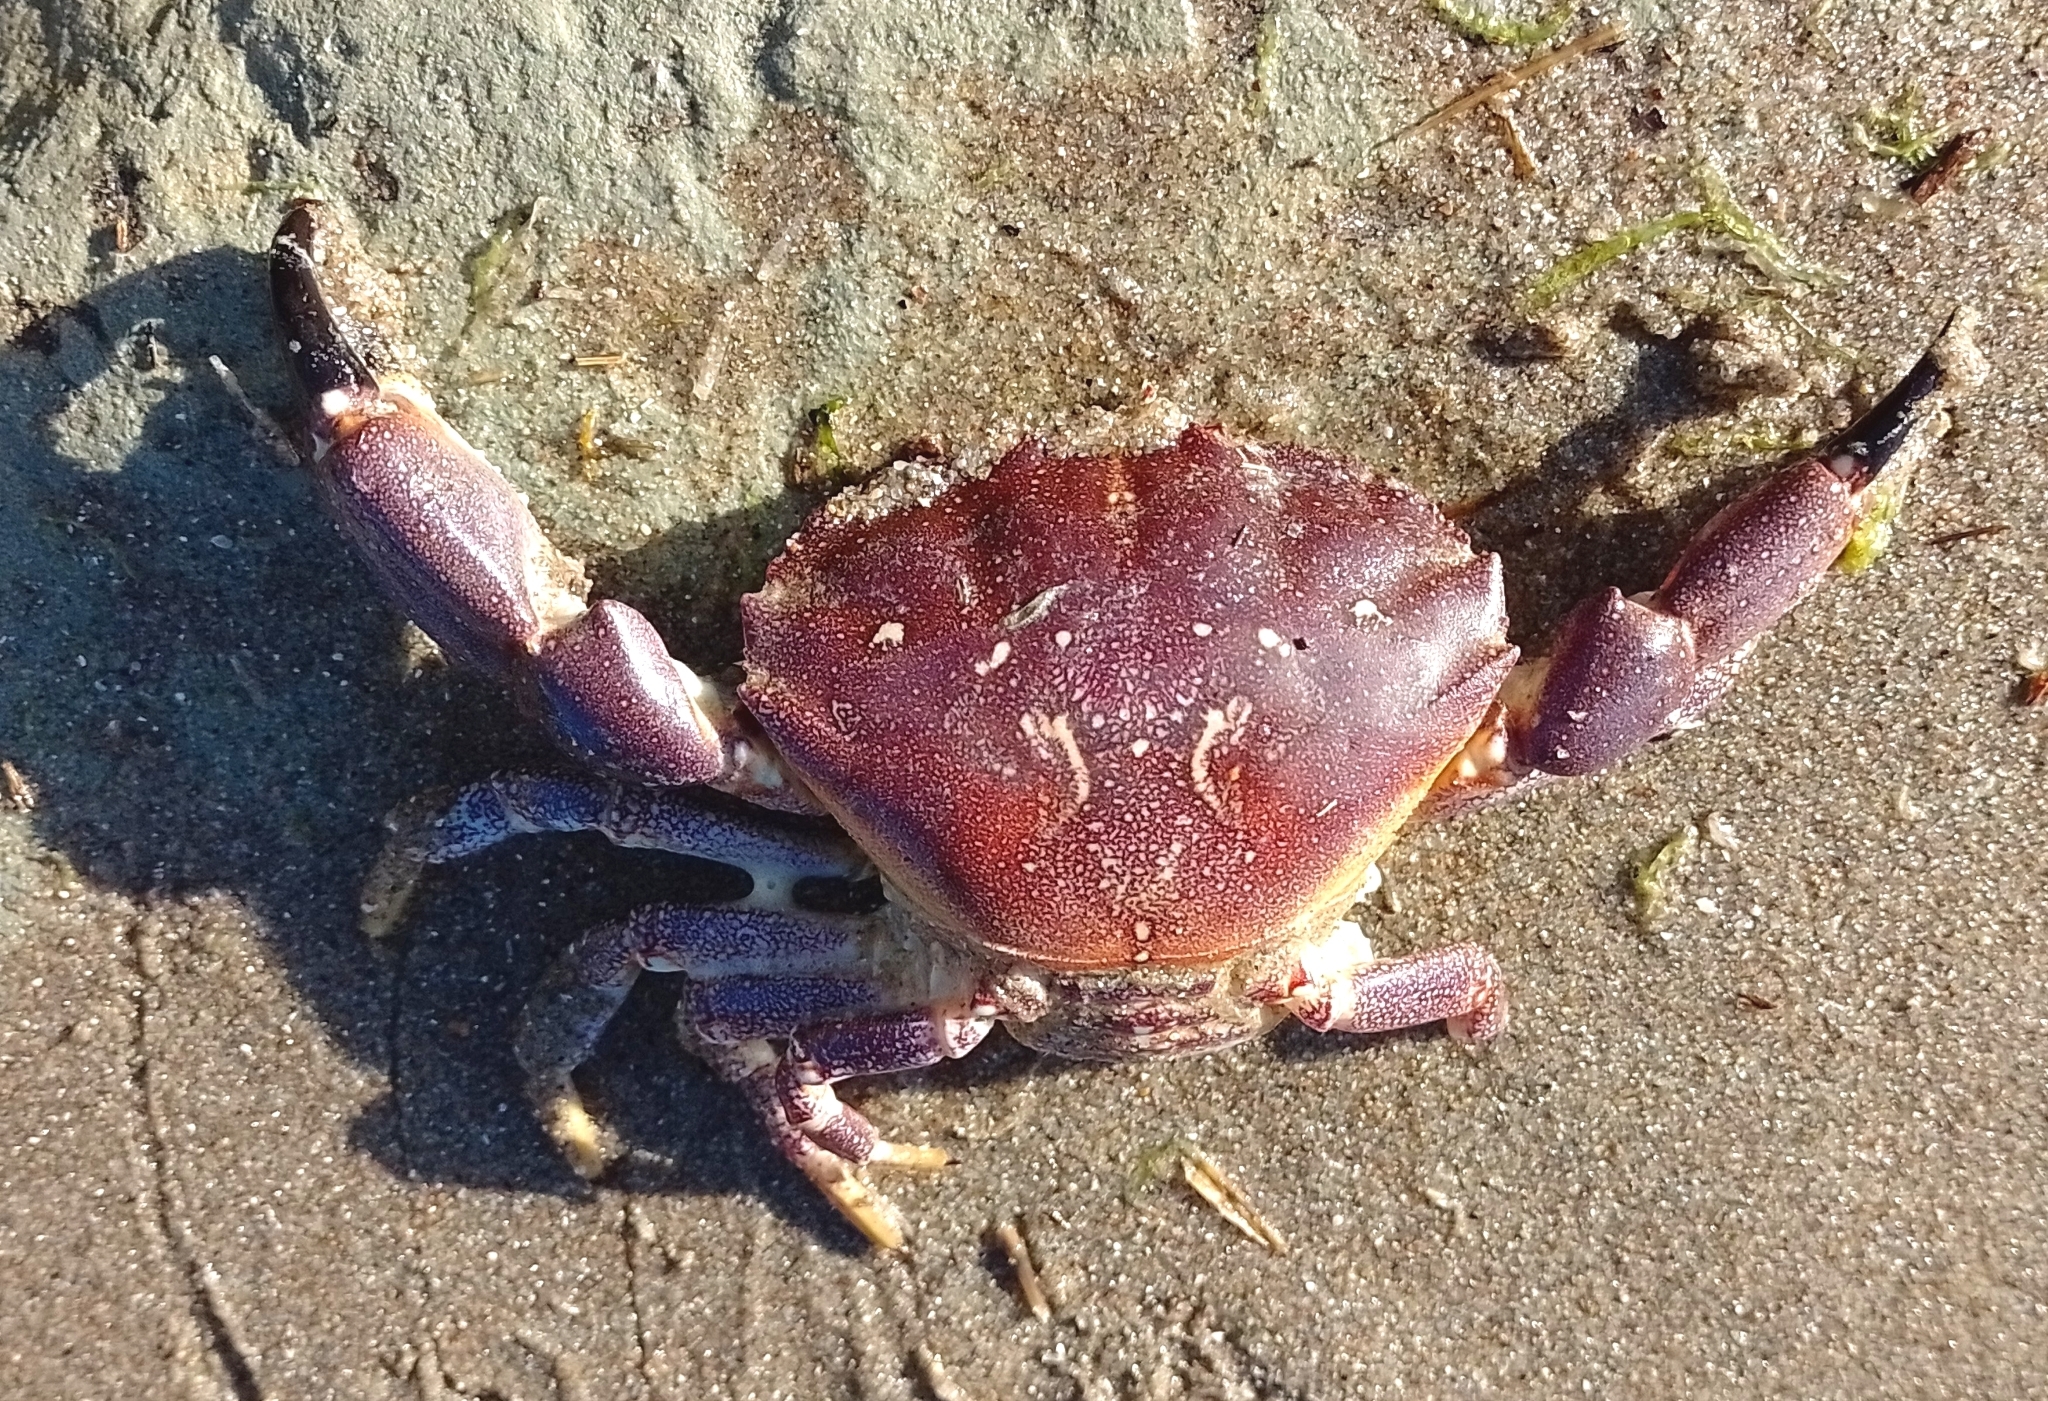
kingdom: Animalia
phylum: Arthropoda
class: Malacostraca
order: Decapoda
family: Platyxanthidae
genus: Danielethus
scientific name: Danielethus crenulatus
